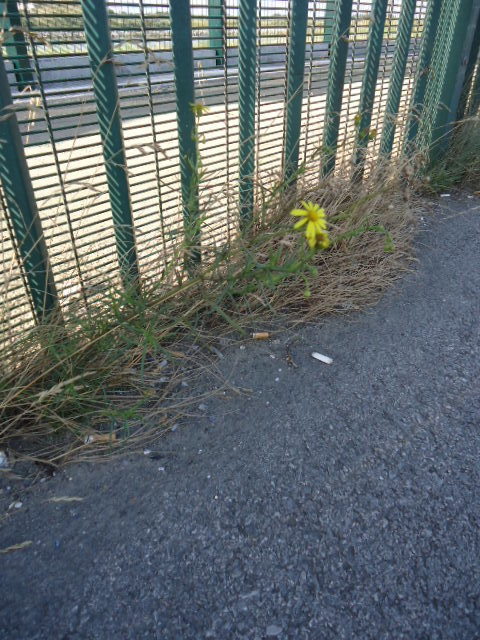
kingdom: Plantae
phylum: Tracheophyta
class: Magnoliopsida
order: Asterales
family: Asteraceae
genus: Senecio
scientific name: Senecio inaequidens
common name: Narrow-leaved ragwort
